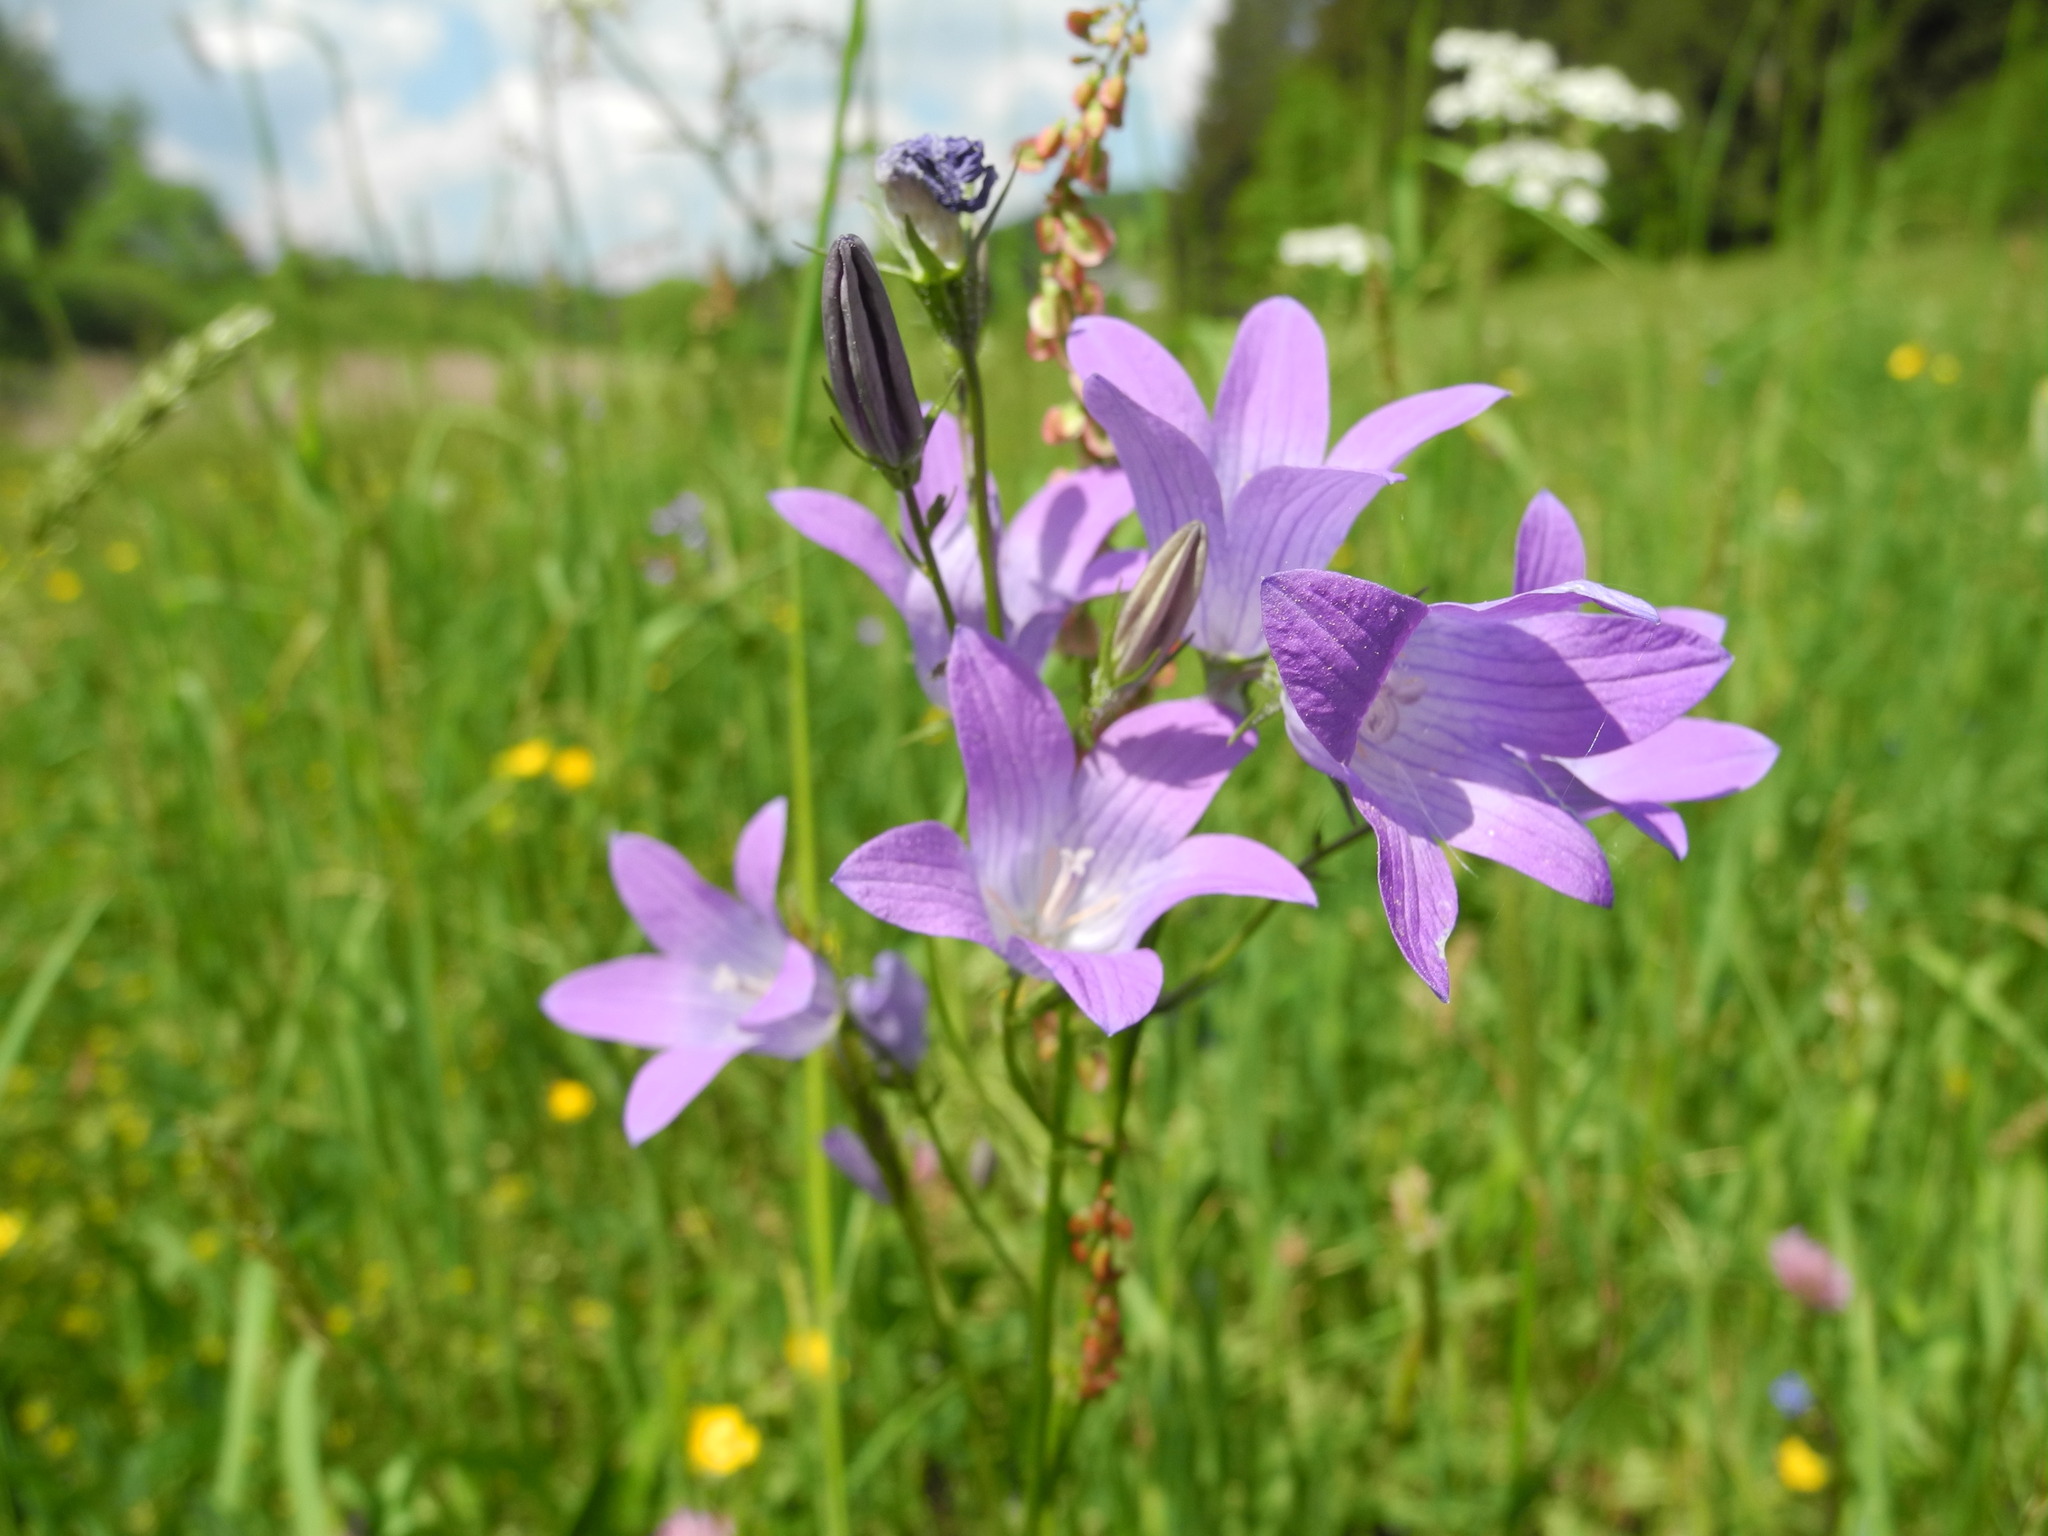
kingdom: Plantae
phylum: Tracheophyta
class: Magnoliopsida
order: Asterales
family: Campanulaceae
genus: Campanula
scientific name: Campanula patula
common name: Spreading bellflower
